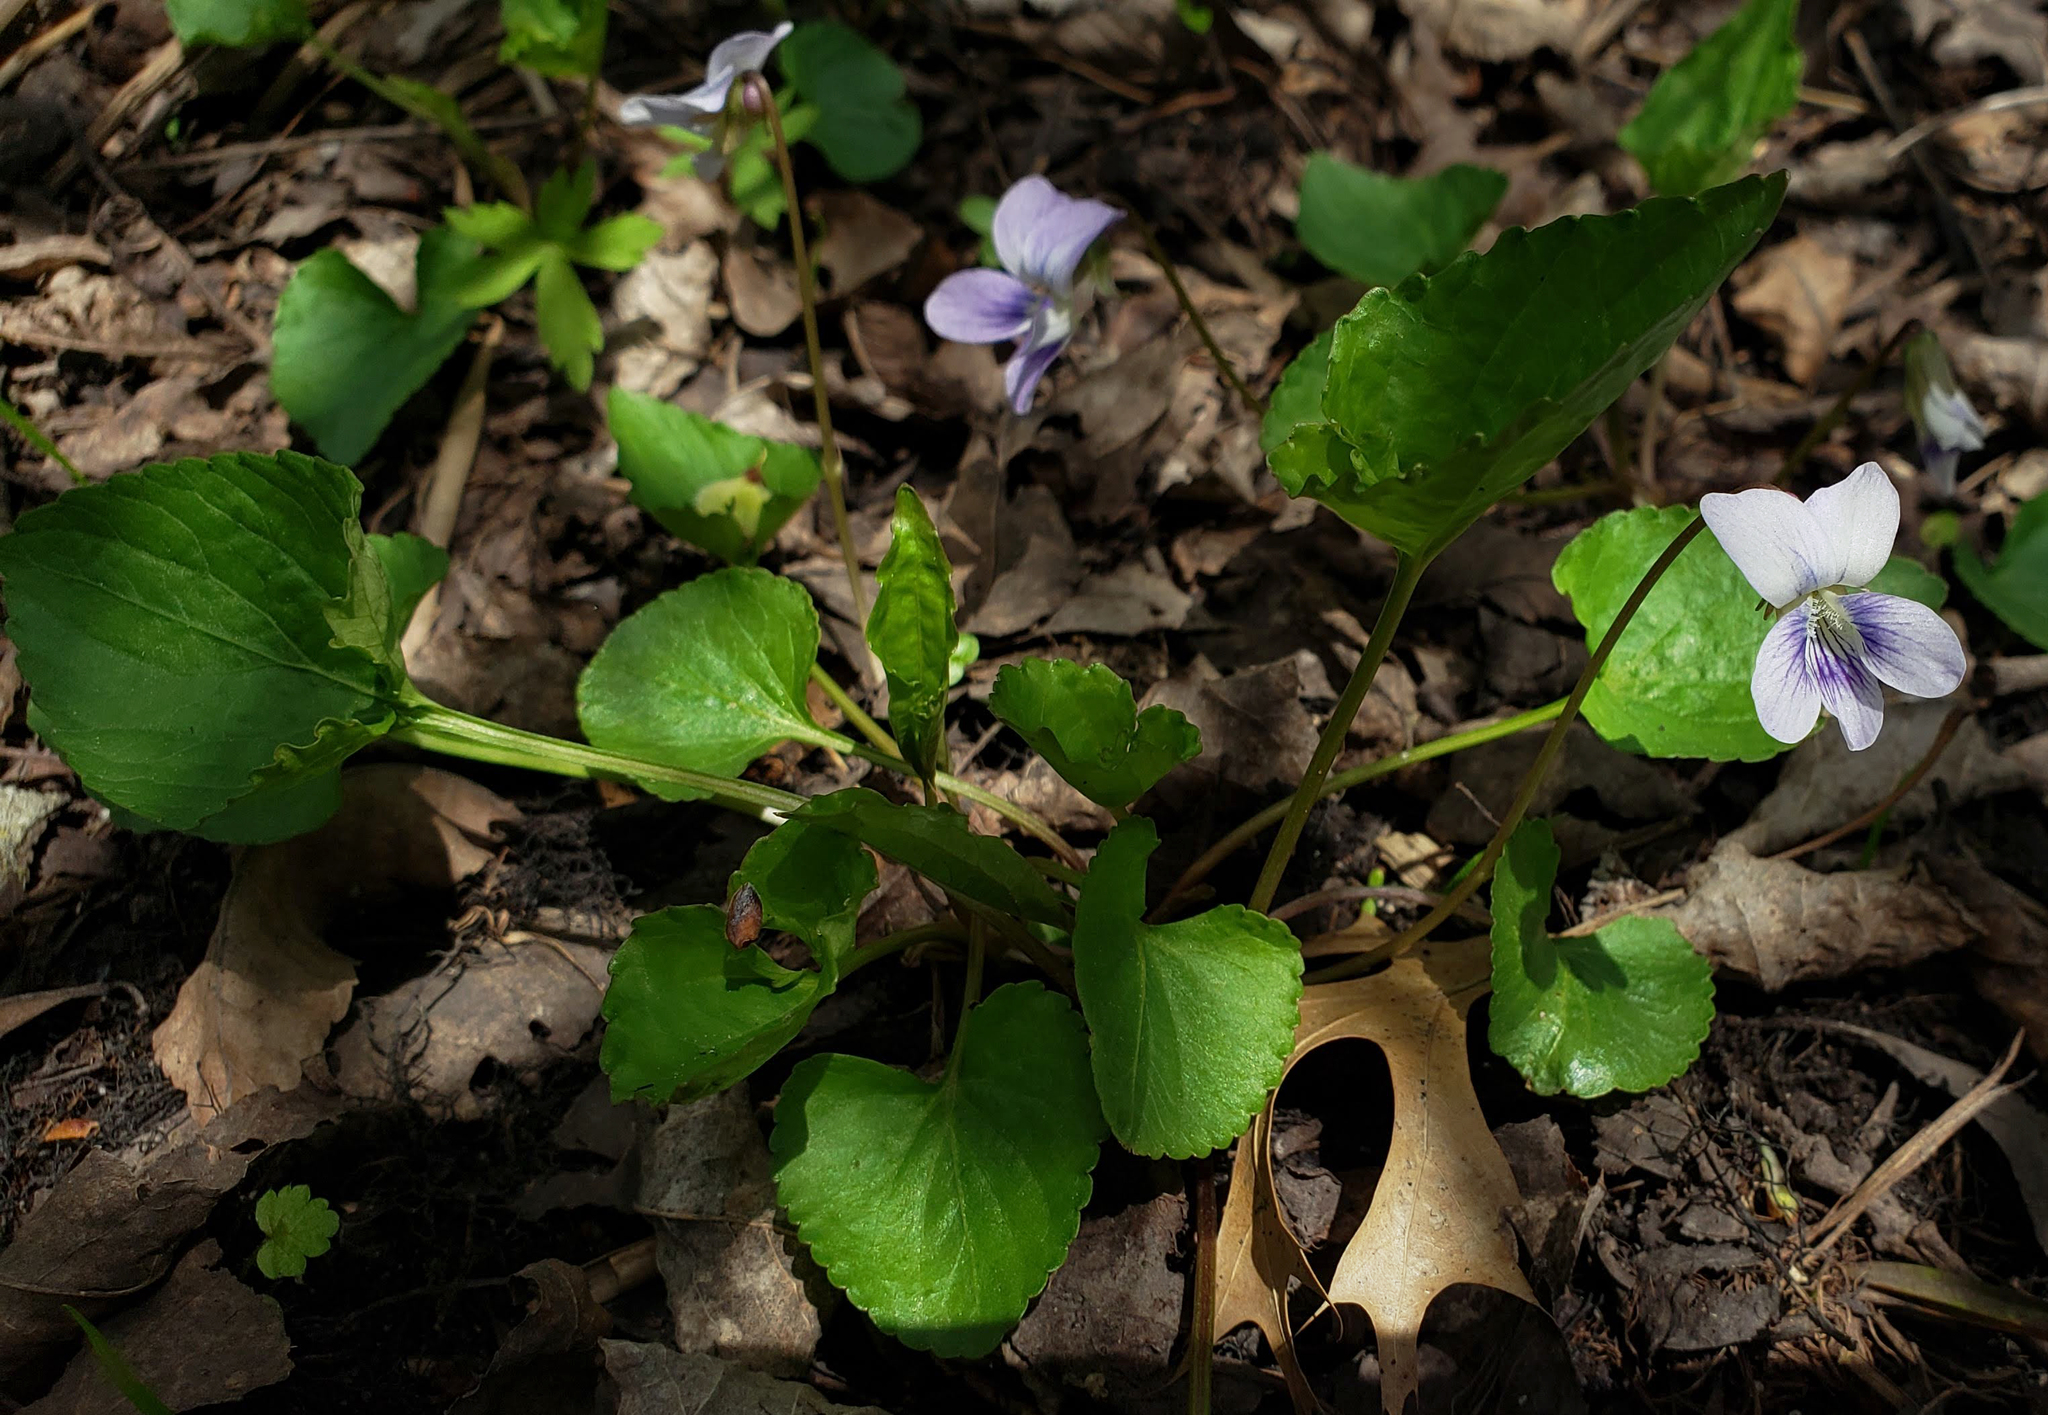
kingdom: Plantae
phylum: Tracheophyta
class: Magnoliopsida
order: Malpighiales
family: Violaceae
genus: Viola
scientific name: Viola sororia
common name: Dooryard violet
